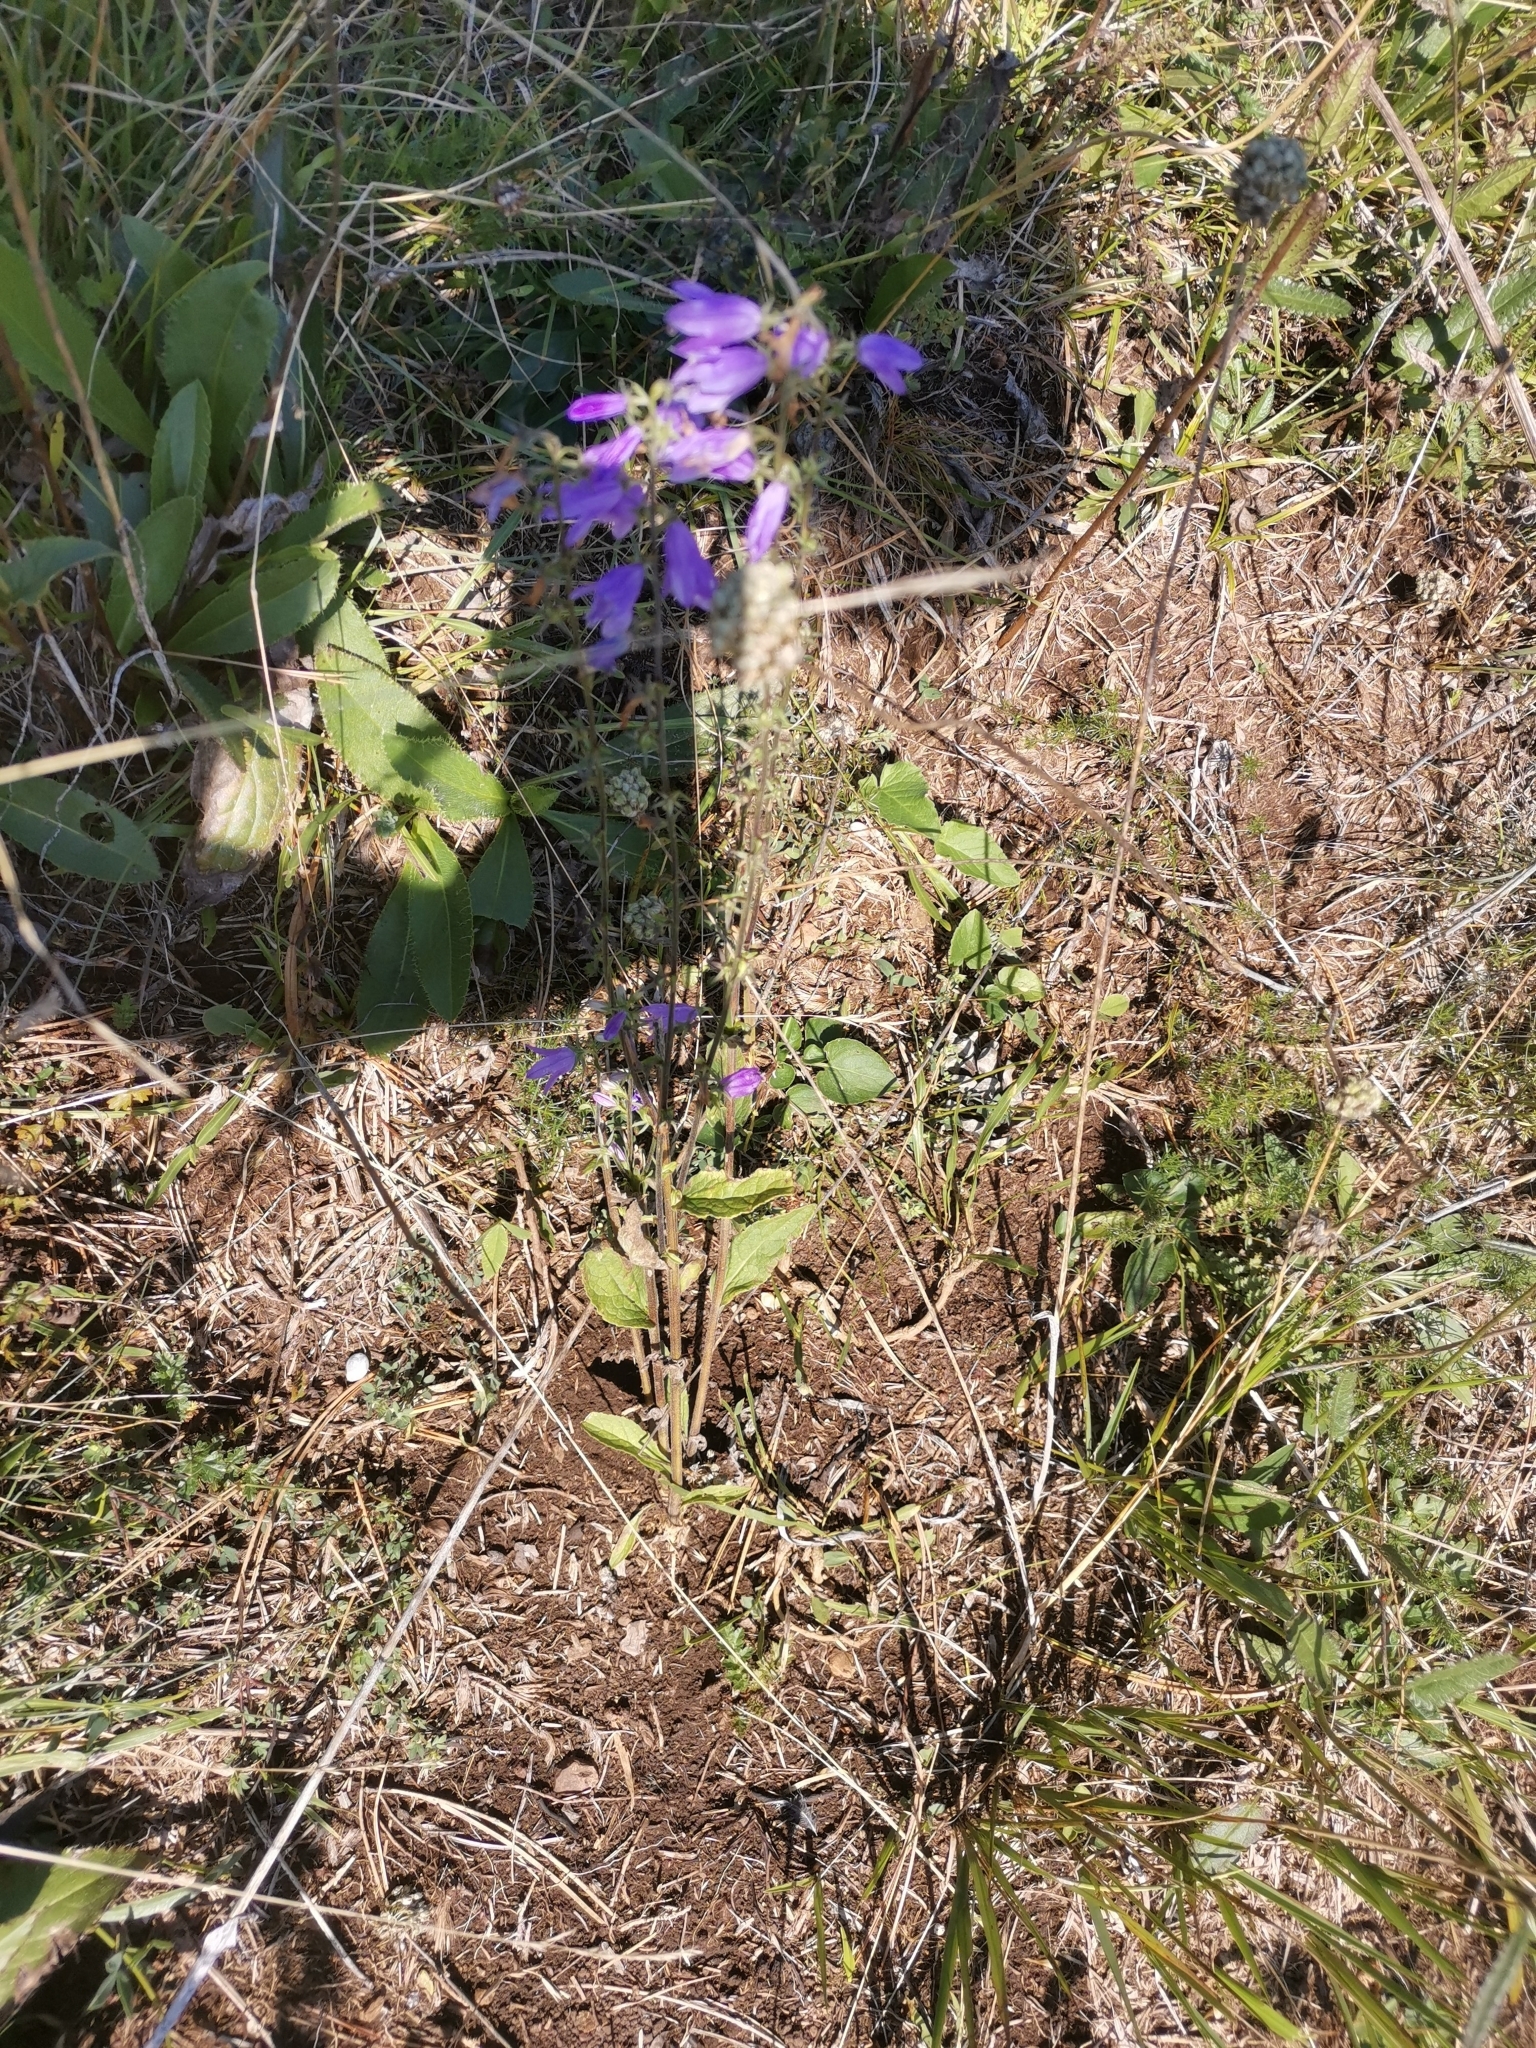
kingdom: Plantae
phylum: Tracheophyta
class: Magnoliopsida
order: Asterales
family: Campanulaceae
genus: Campanula
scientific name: Campanula bononiensis
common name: Pale bellflower
